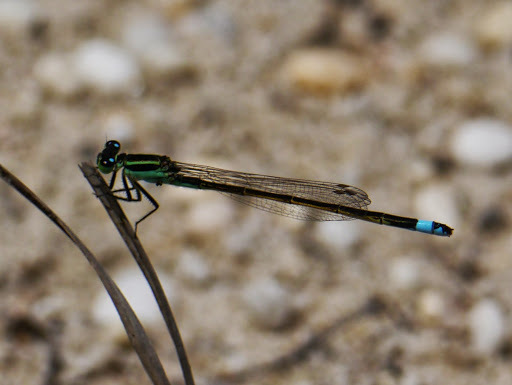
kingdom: Animalia
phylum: Arthropoda
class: Insecta
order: Odonata
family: Coenagrionidae
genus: Ischnura
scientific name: Ischnura ramburii
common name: Rambur's forktail
